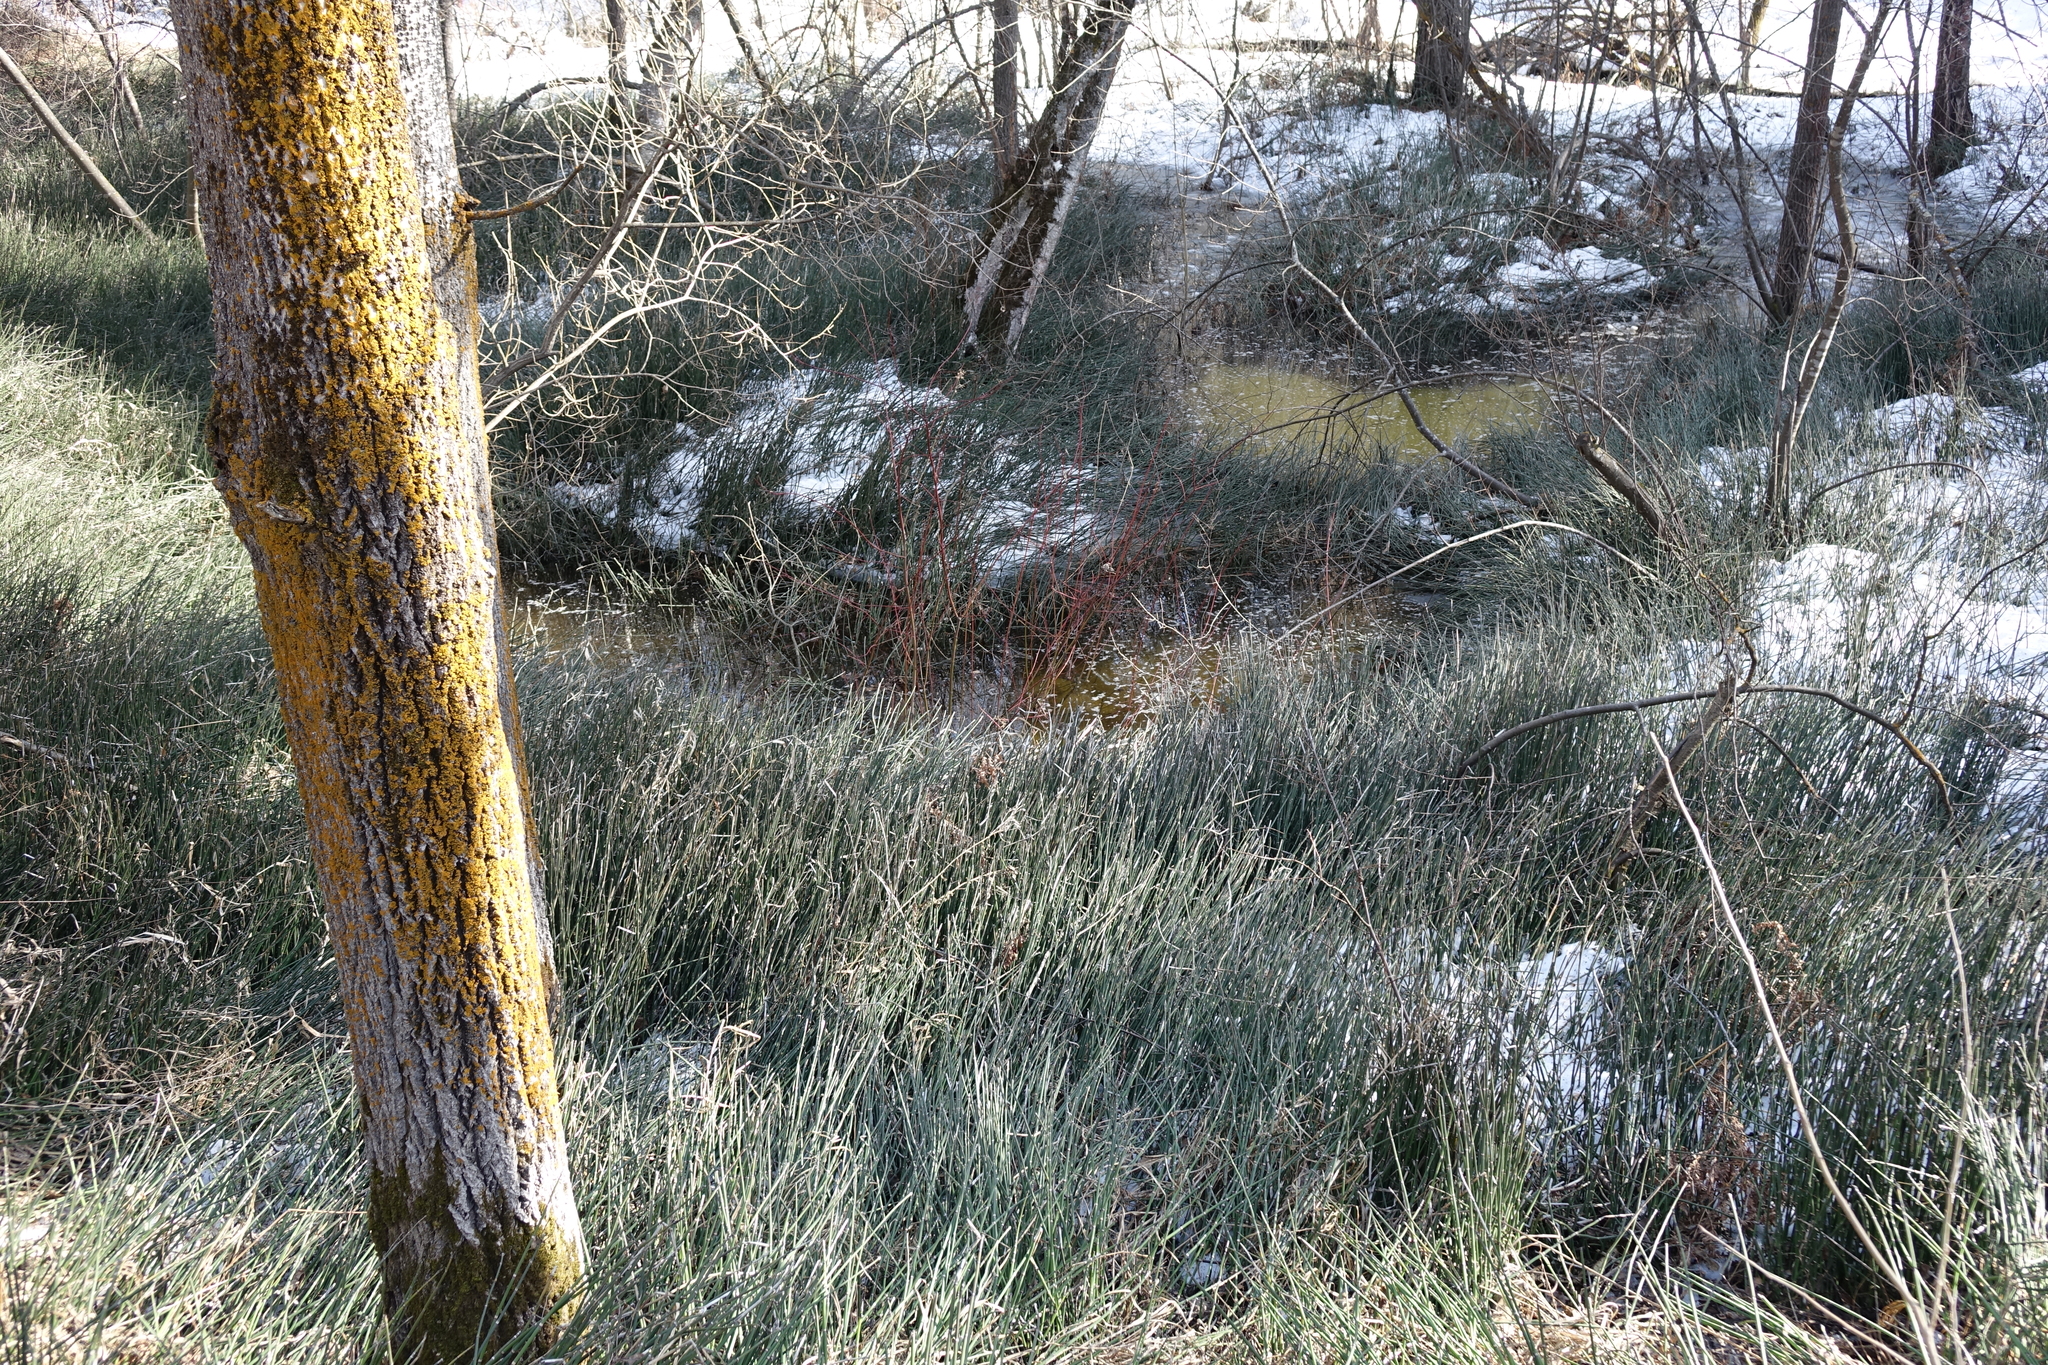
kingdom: Plantae
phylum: Tracheophyta
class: Polypodiopsida
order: Equisetales
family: Equisetaceae
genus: Equisetum
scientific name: Equisetum hyemale
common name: Rough horsetail
